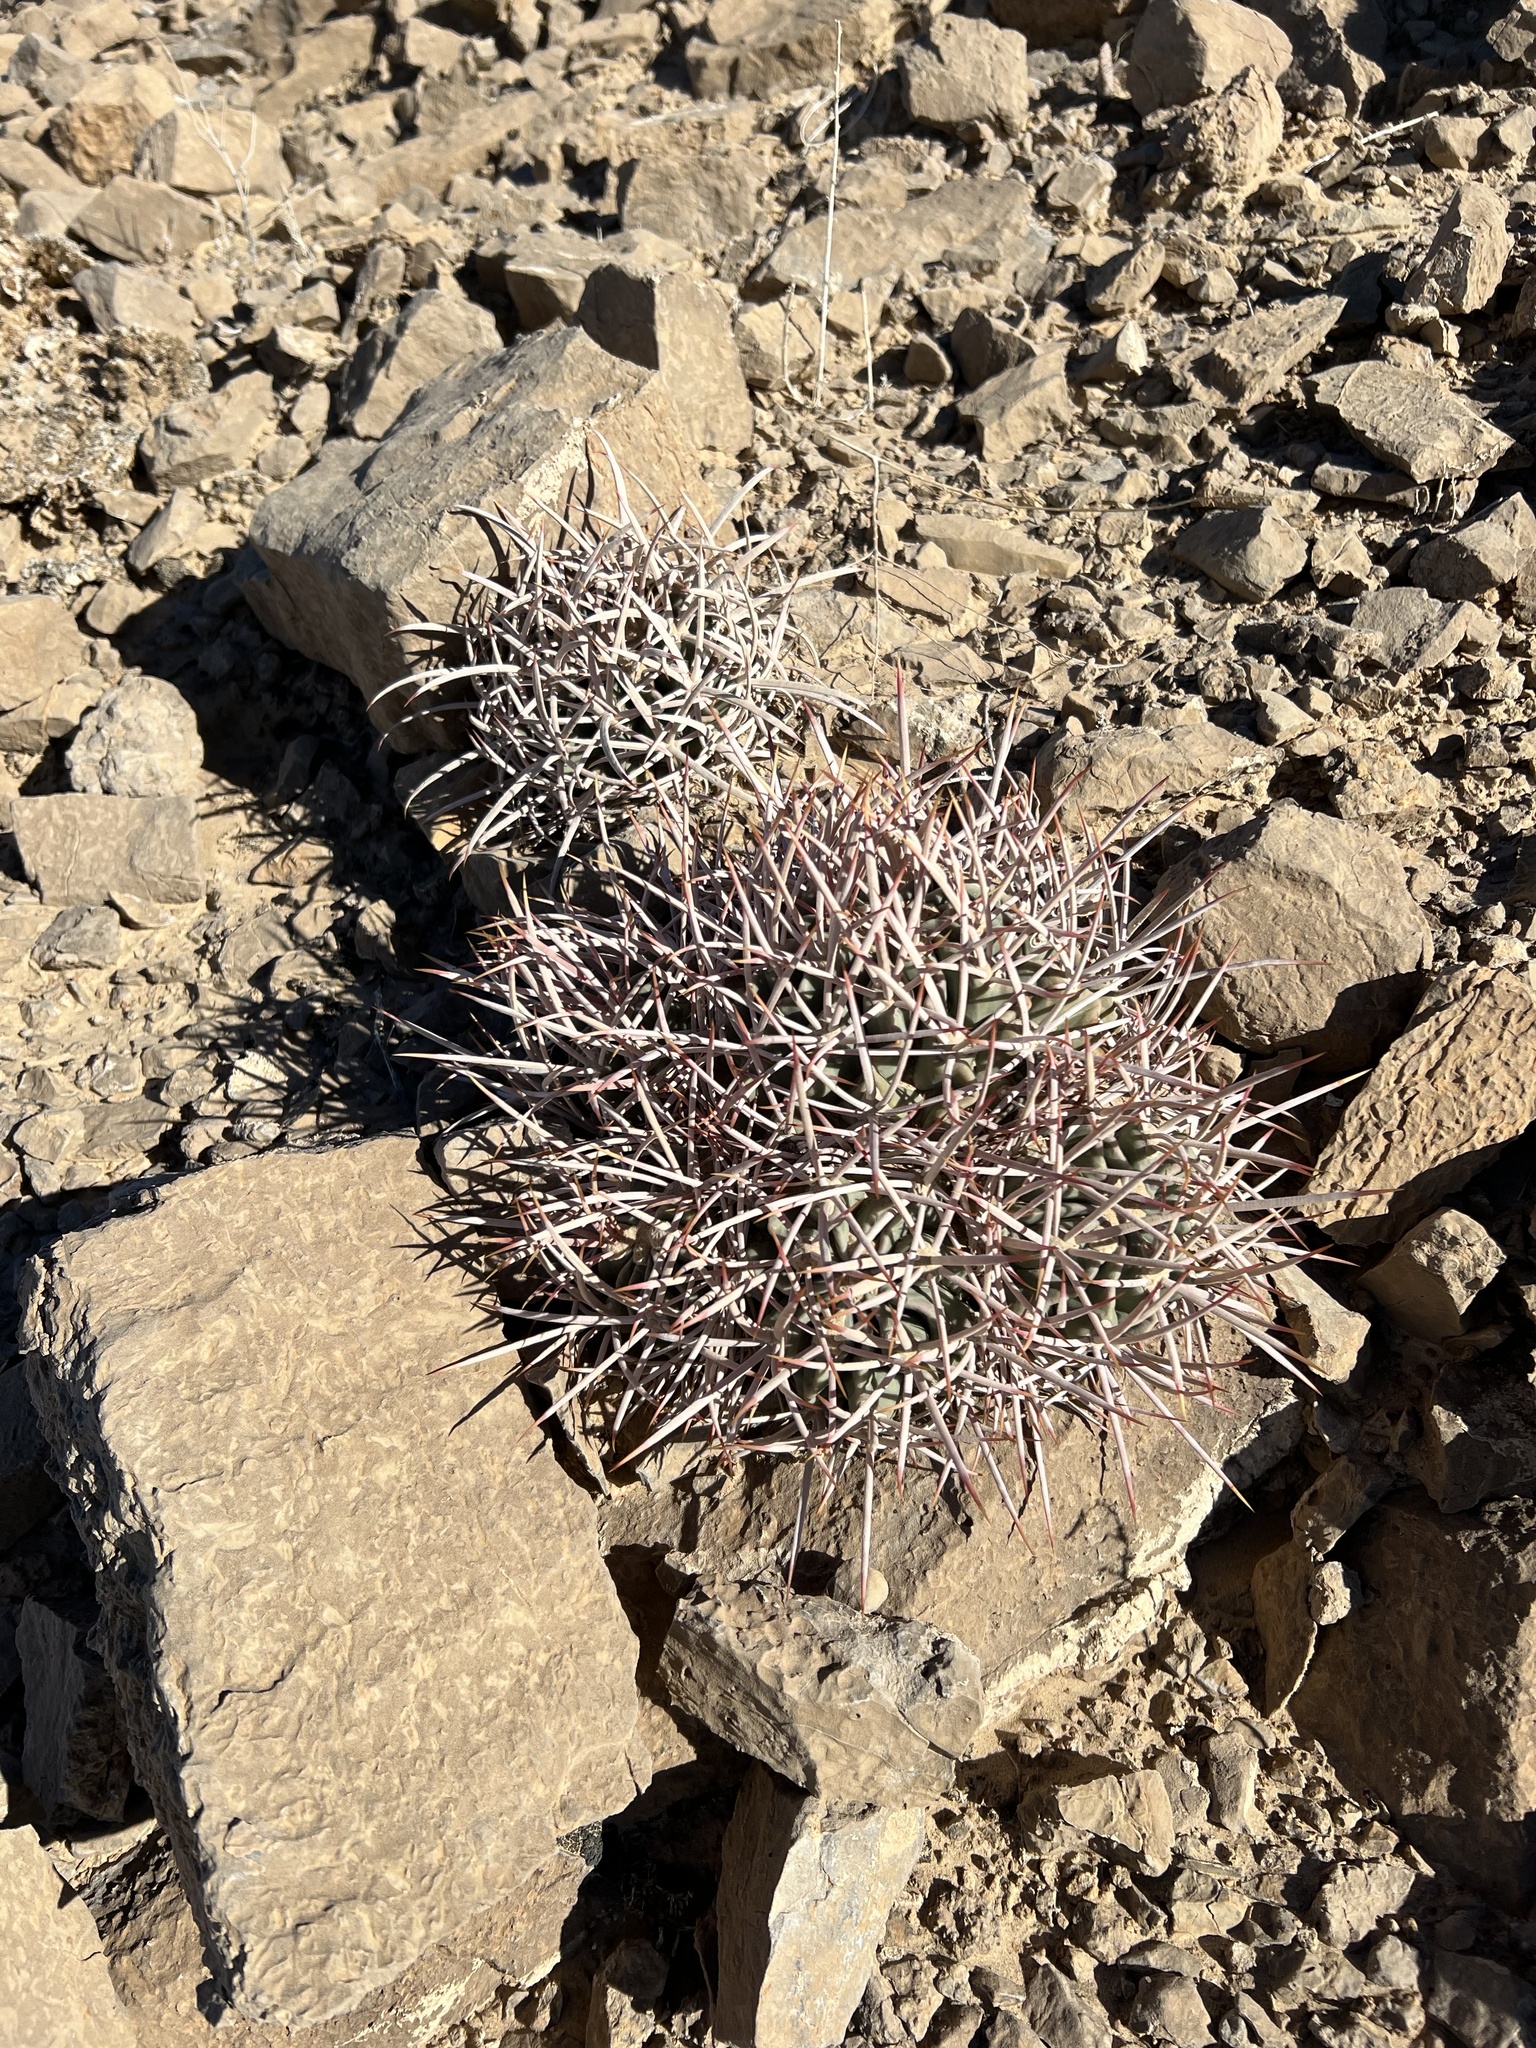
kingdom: Plantae
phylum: Tracheophyta
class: Magnoliopsida
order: Caryophyllales
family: Cactaceae
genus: Echinocactus
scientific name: Echinocactus polycephalus
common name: Cottontop cactus
